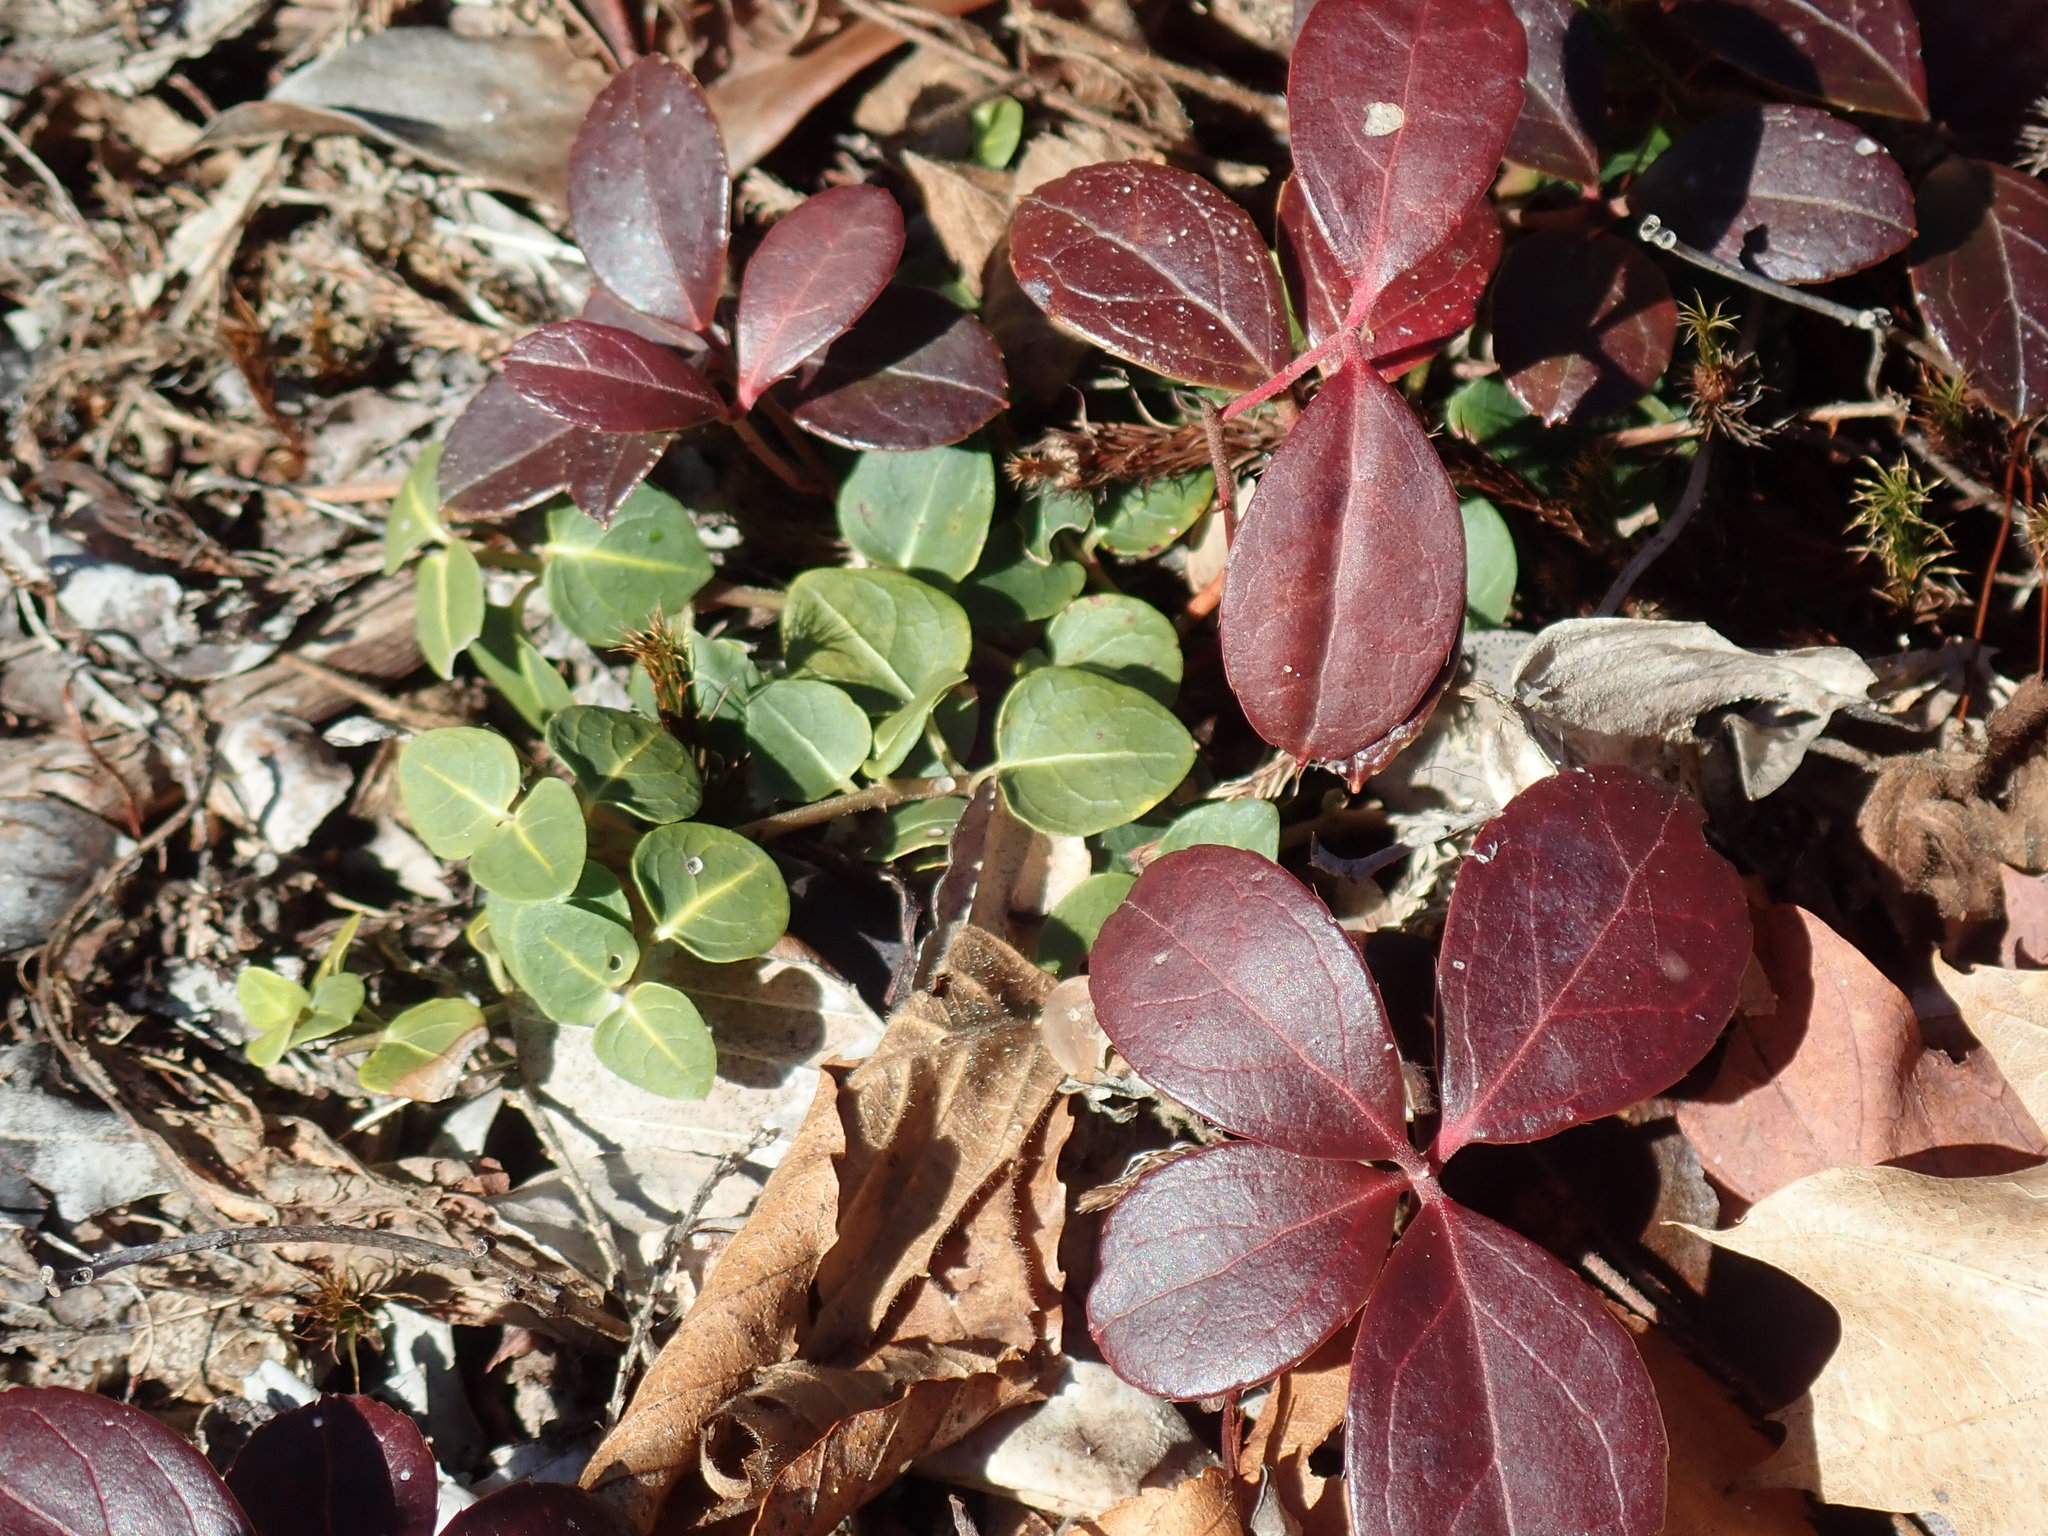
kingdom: Plantae
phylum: Tracheophyta
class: Magnoliopsida
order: Gentianales
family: Rubiaceae
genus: Mitchella
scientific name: Mitchella repens
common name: Partridge-berry
